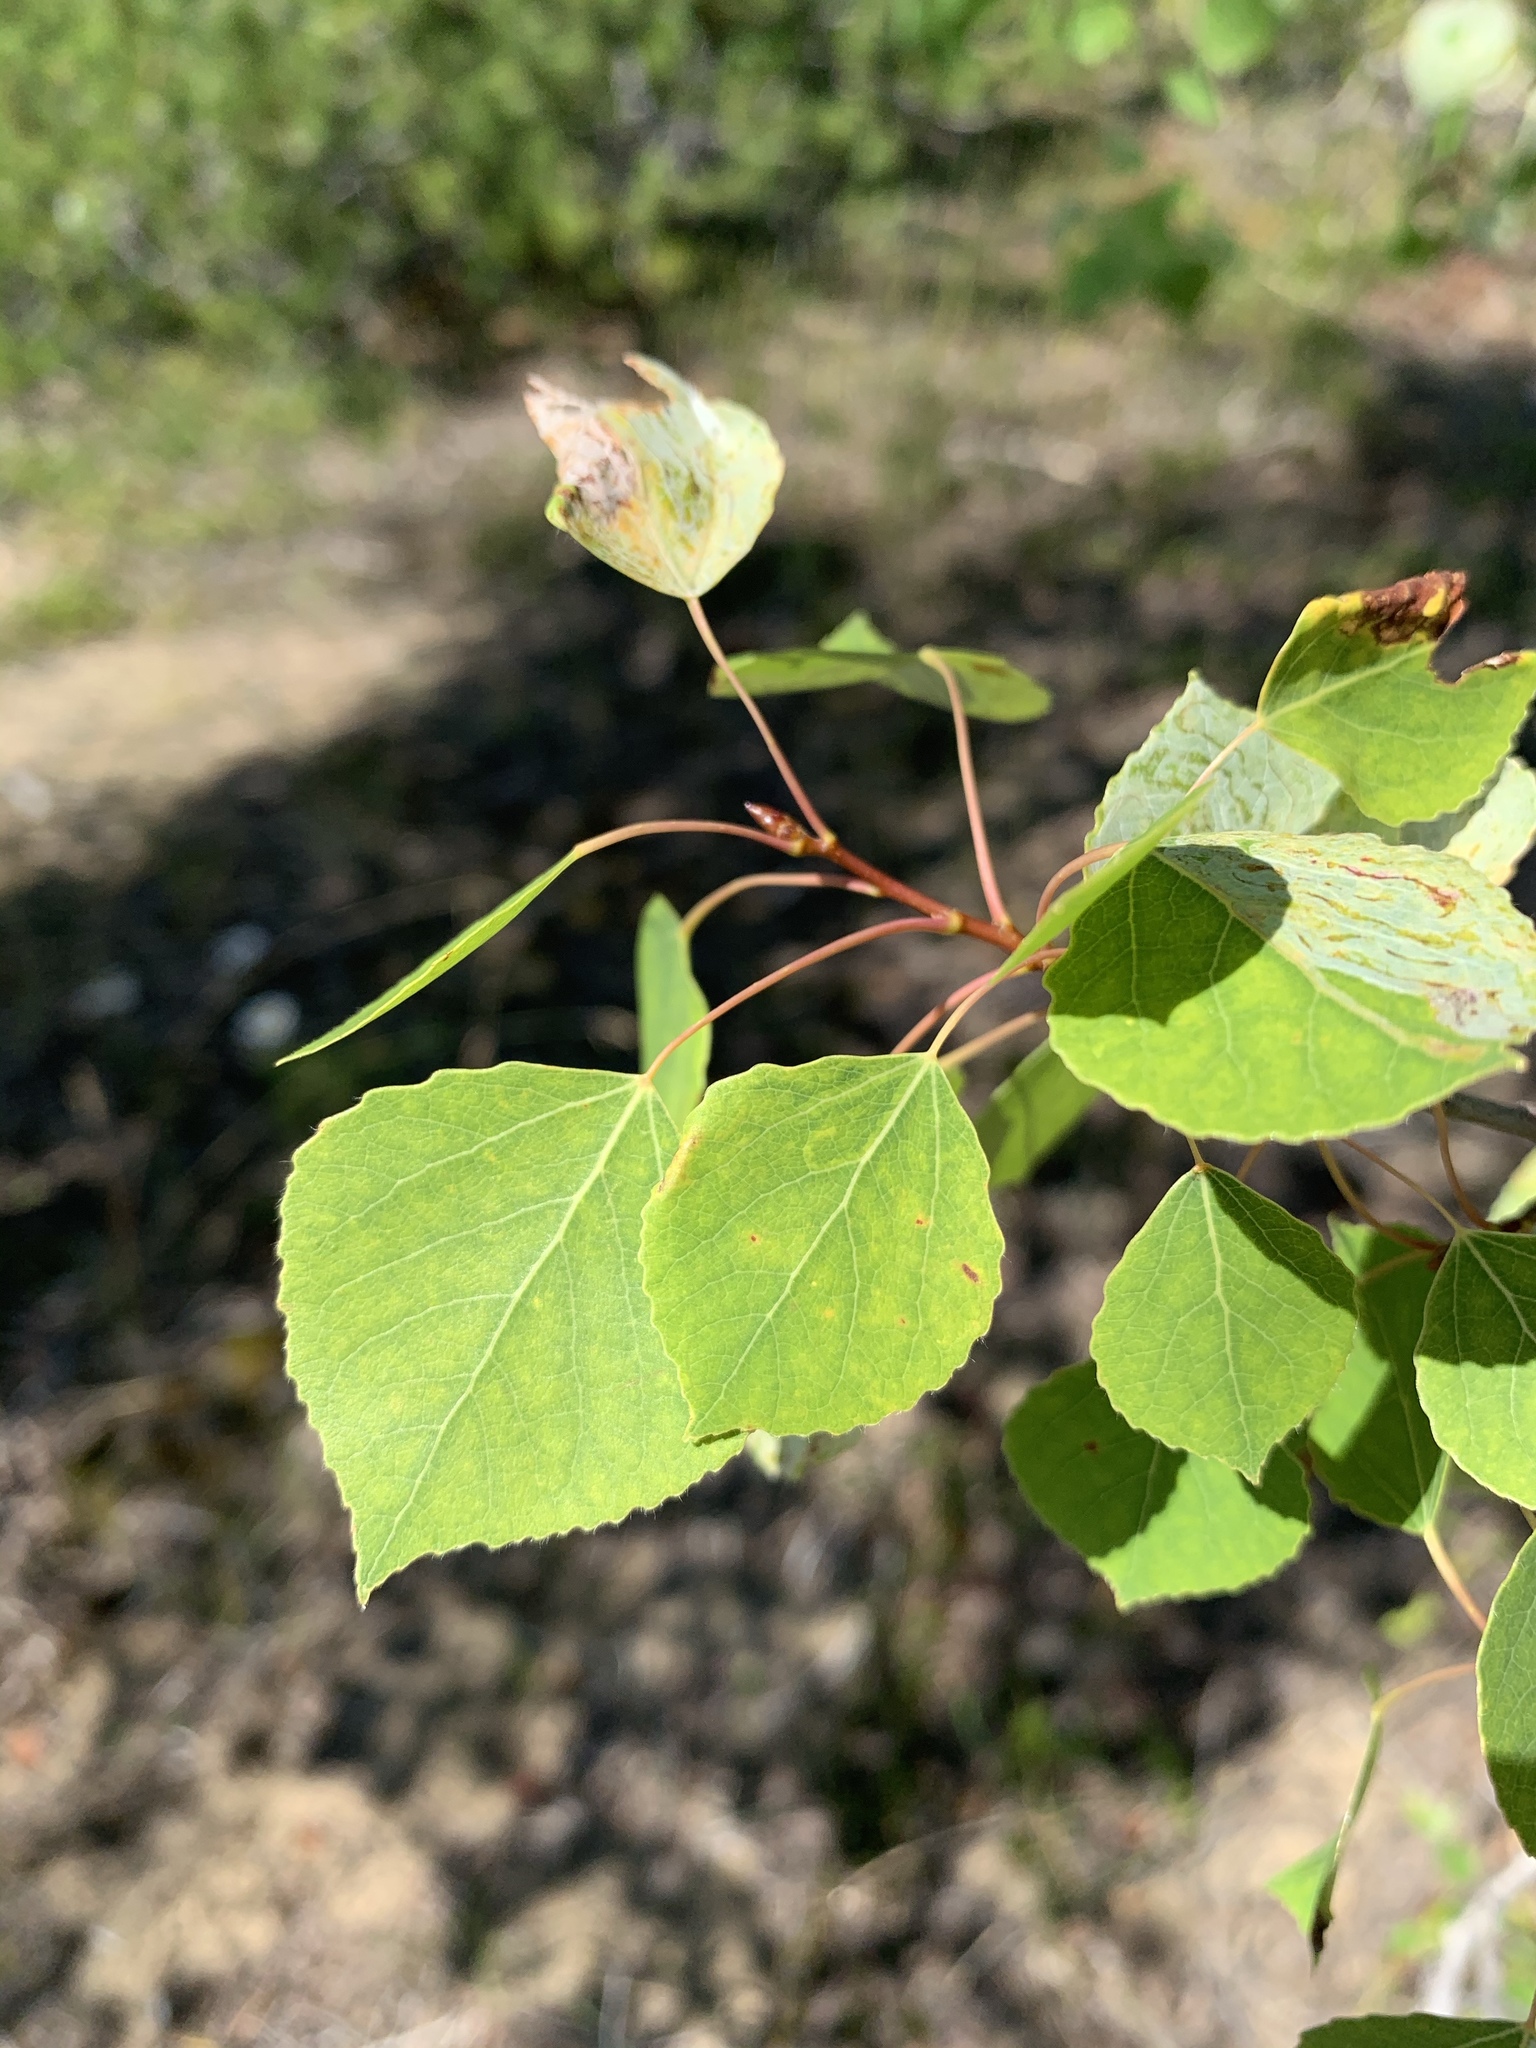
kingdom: Plantae
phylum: Tracheophyta
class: Magnoliopsida
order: Malpighiales
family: Salicaceae
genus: Populus
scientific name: Populus tremuloides
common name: Quaking aspen
